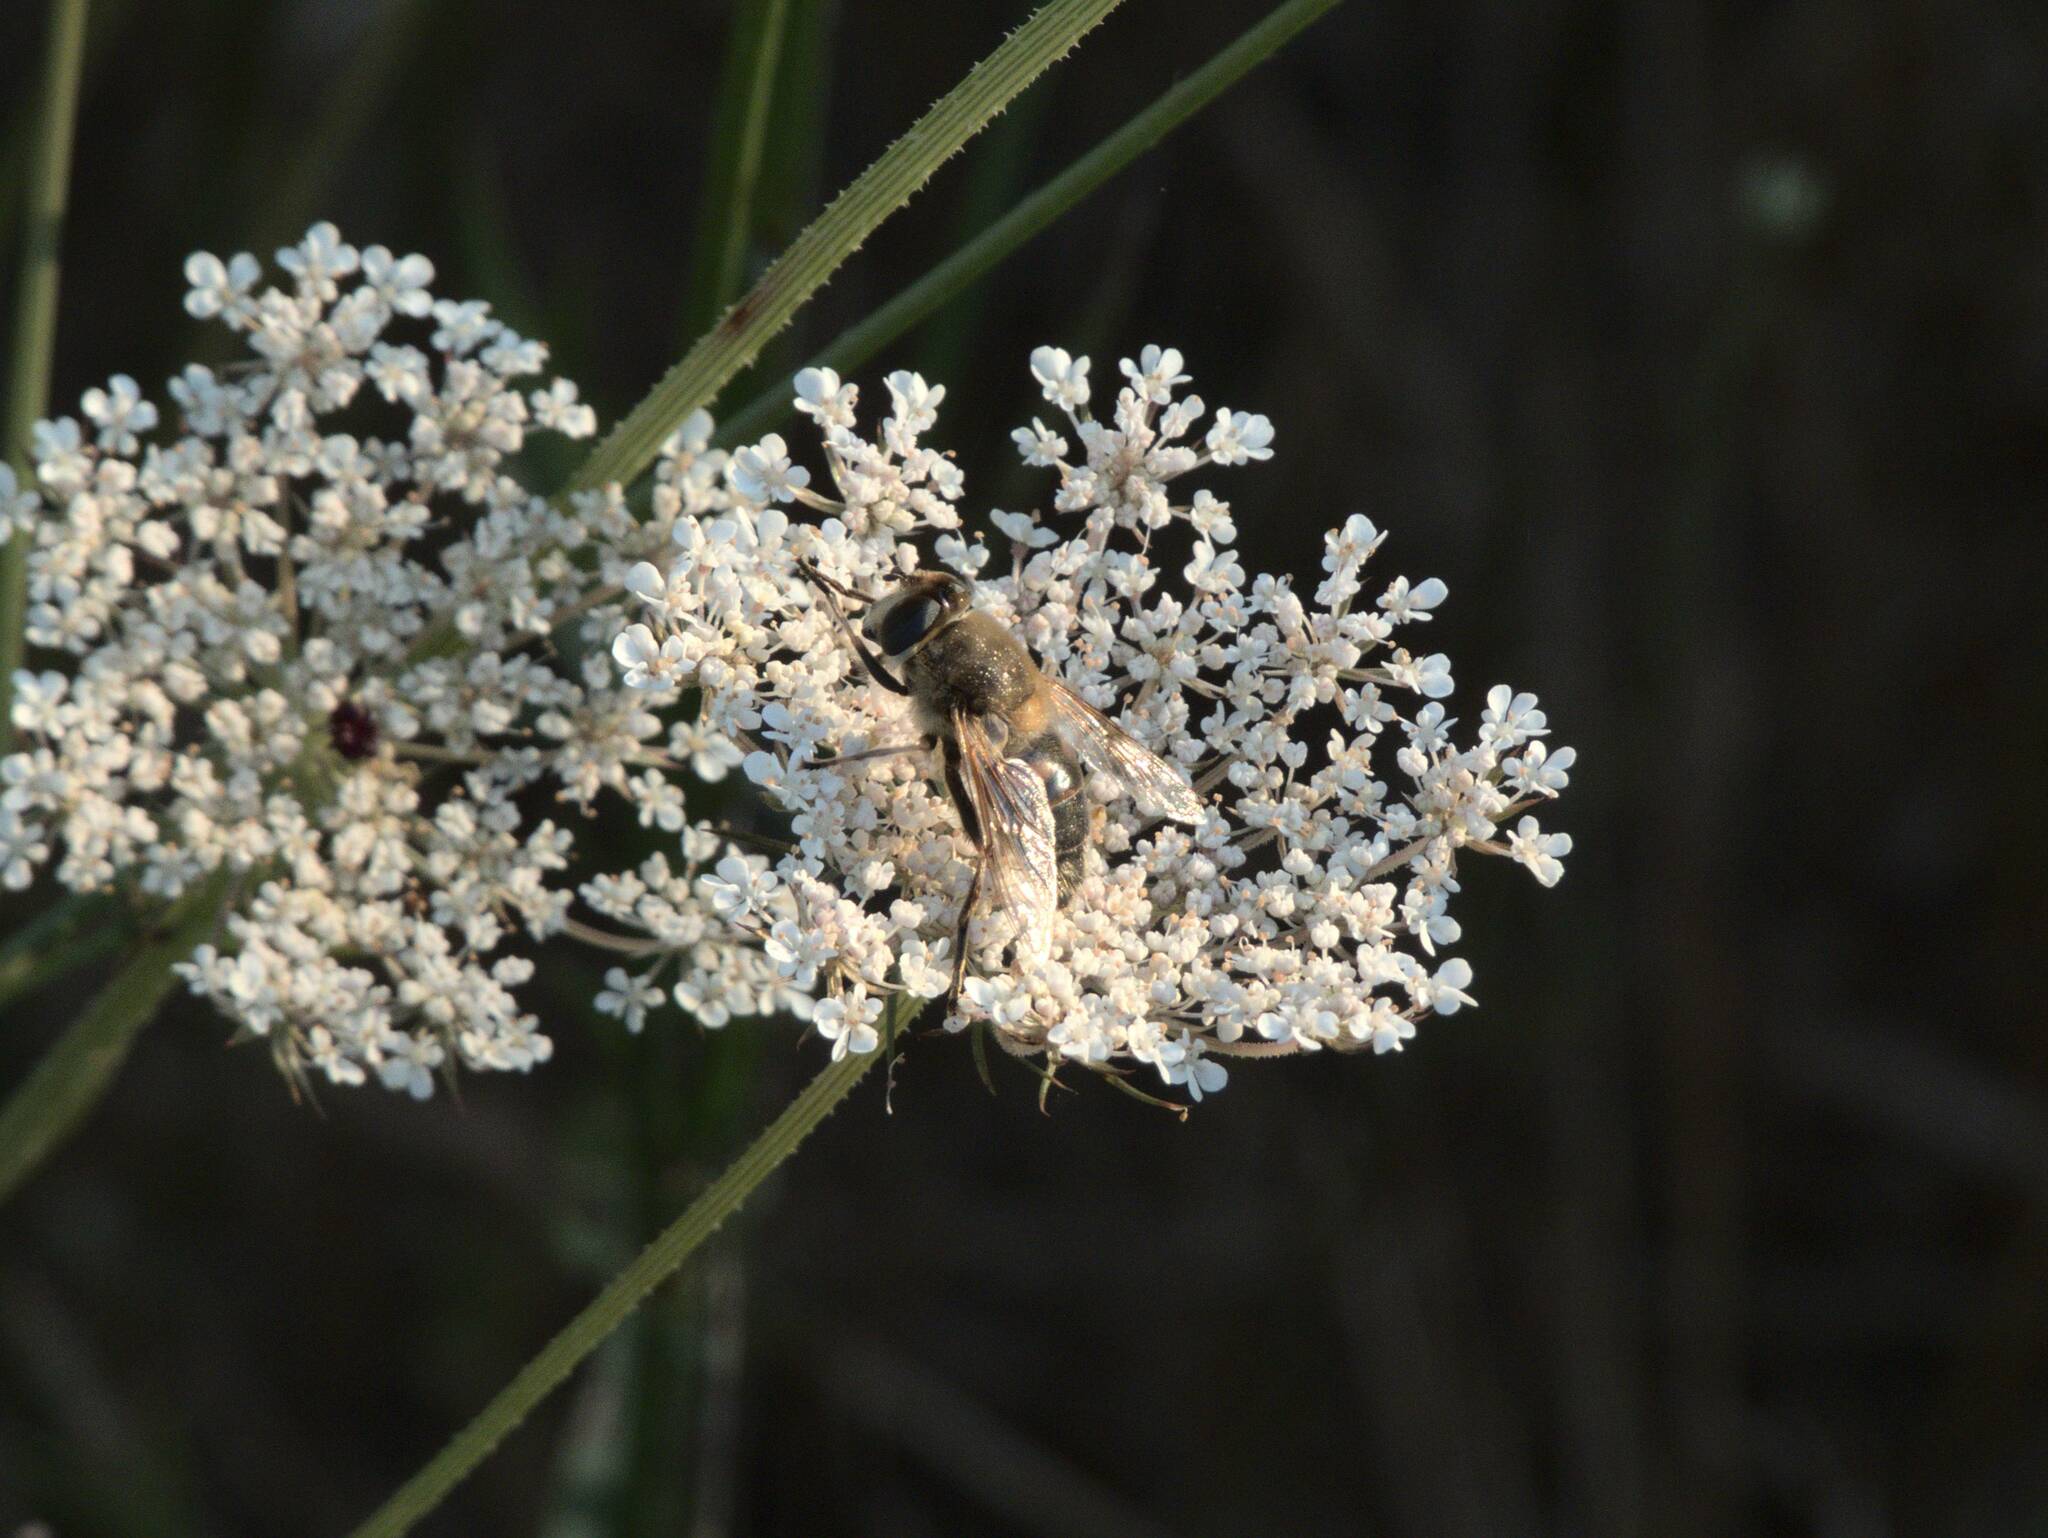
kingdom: Animalia
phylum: Arthropoda
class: Insecta
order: Diptera
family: Syrphidae
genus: Eristalis
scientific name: Eristalis tenax
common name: Drone fly
